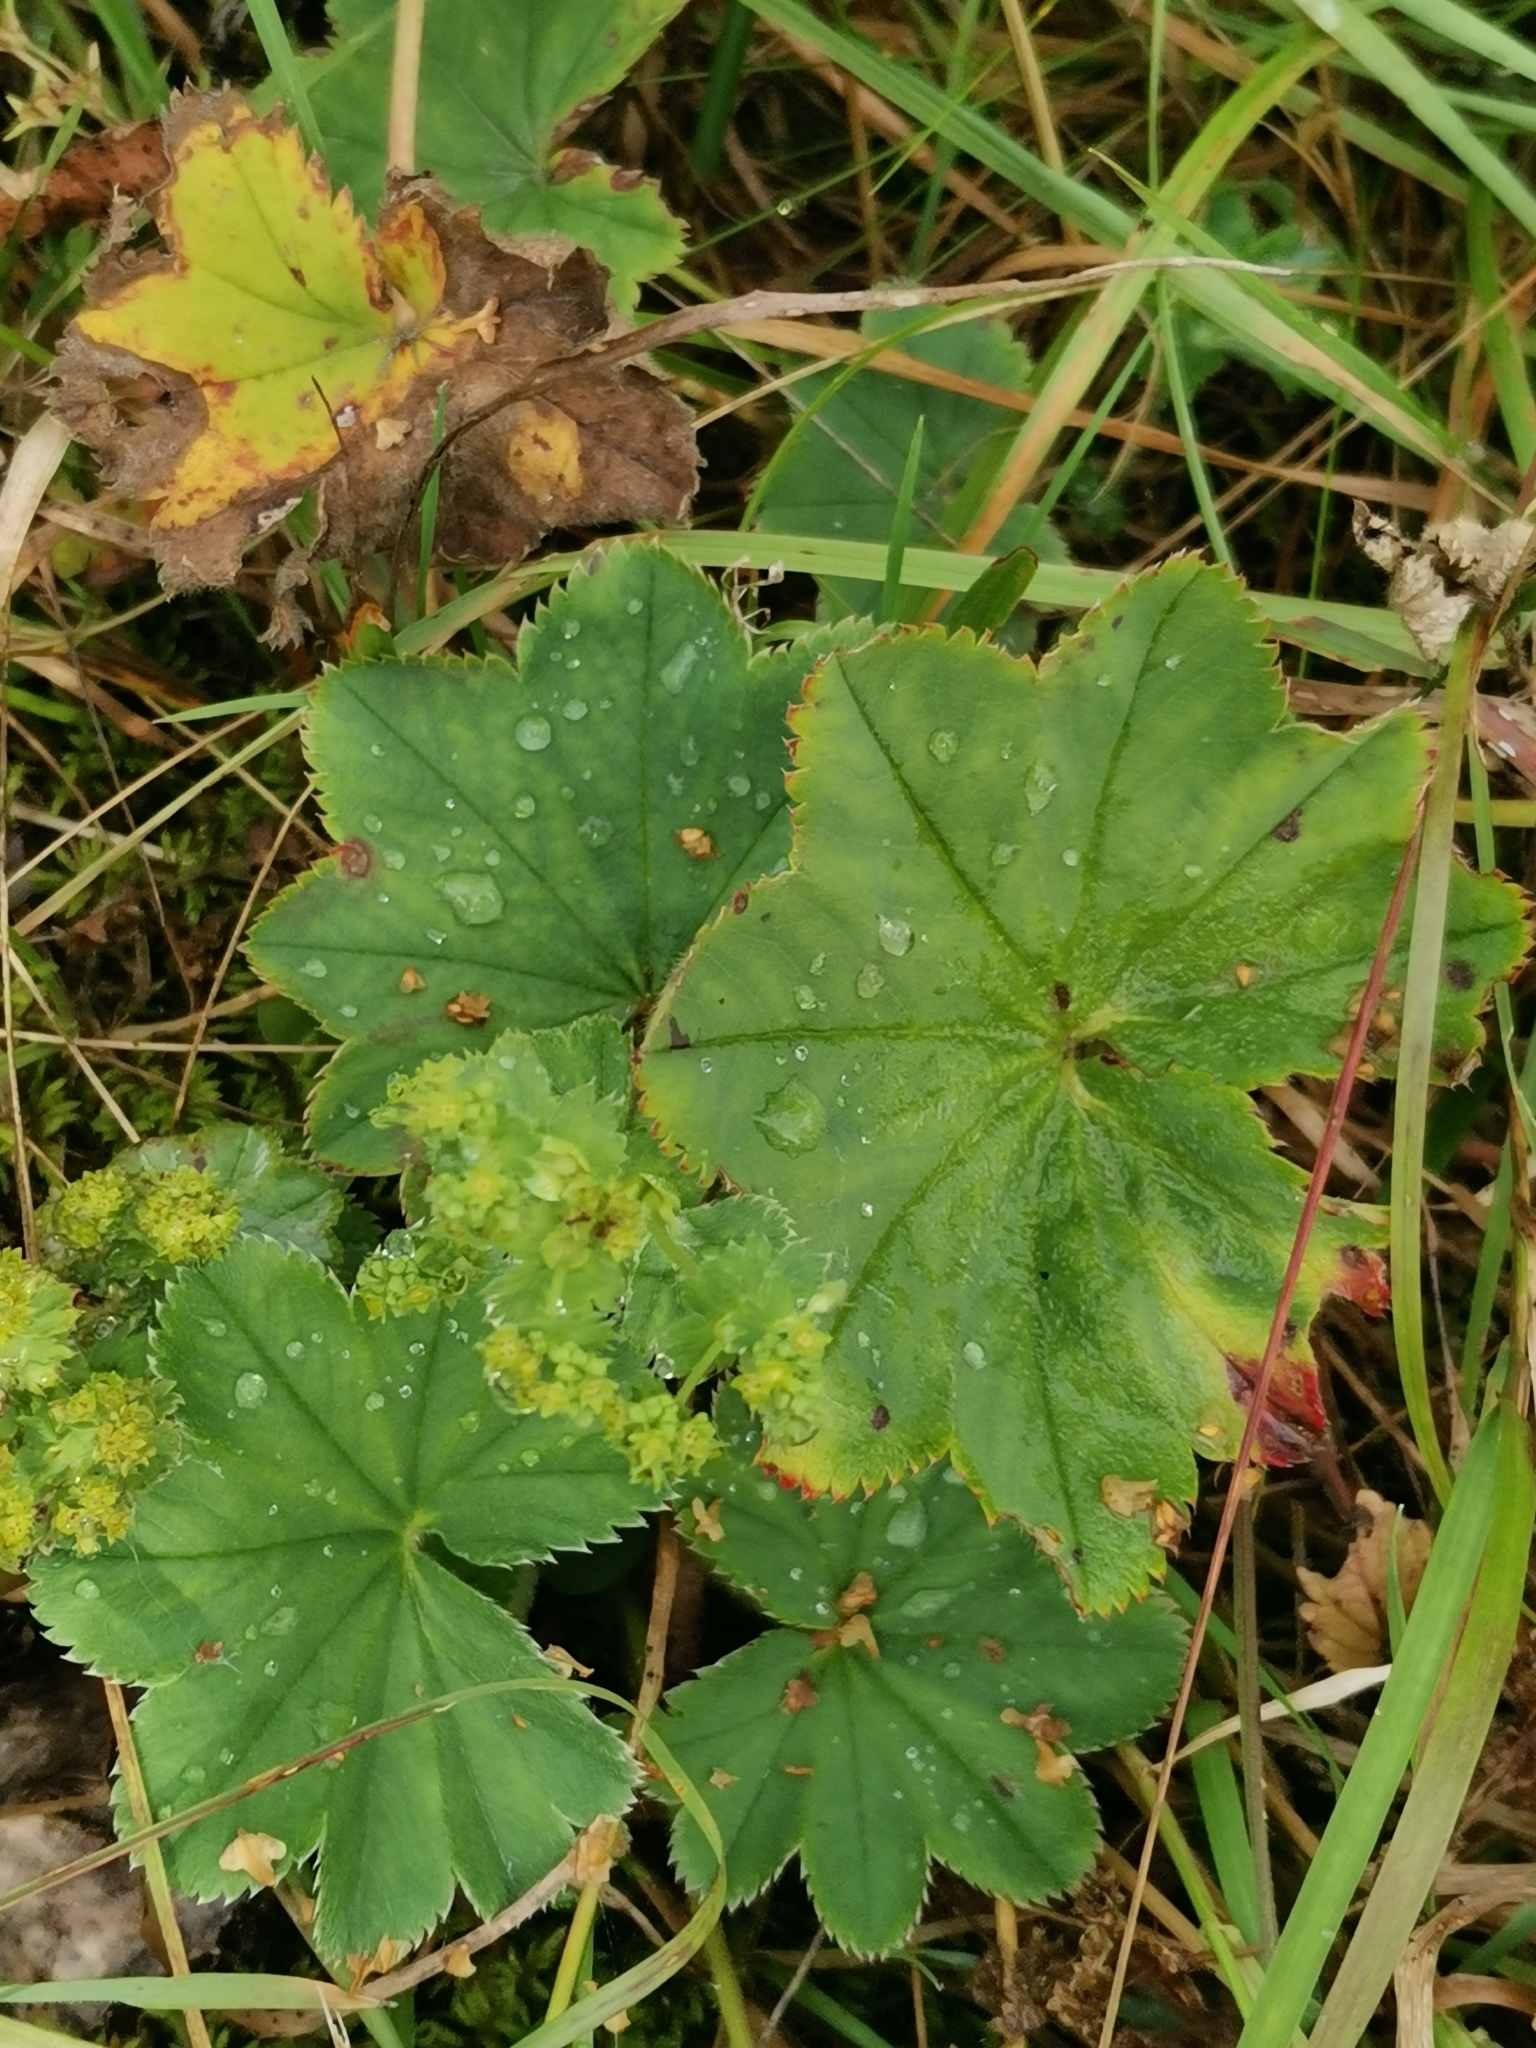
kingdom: Plantae
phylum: Tracheophyta
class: Magnoliopsida
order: Rosales
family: Rosaceae
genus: Alchemilla
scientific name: Alchemilla vulgaris
